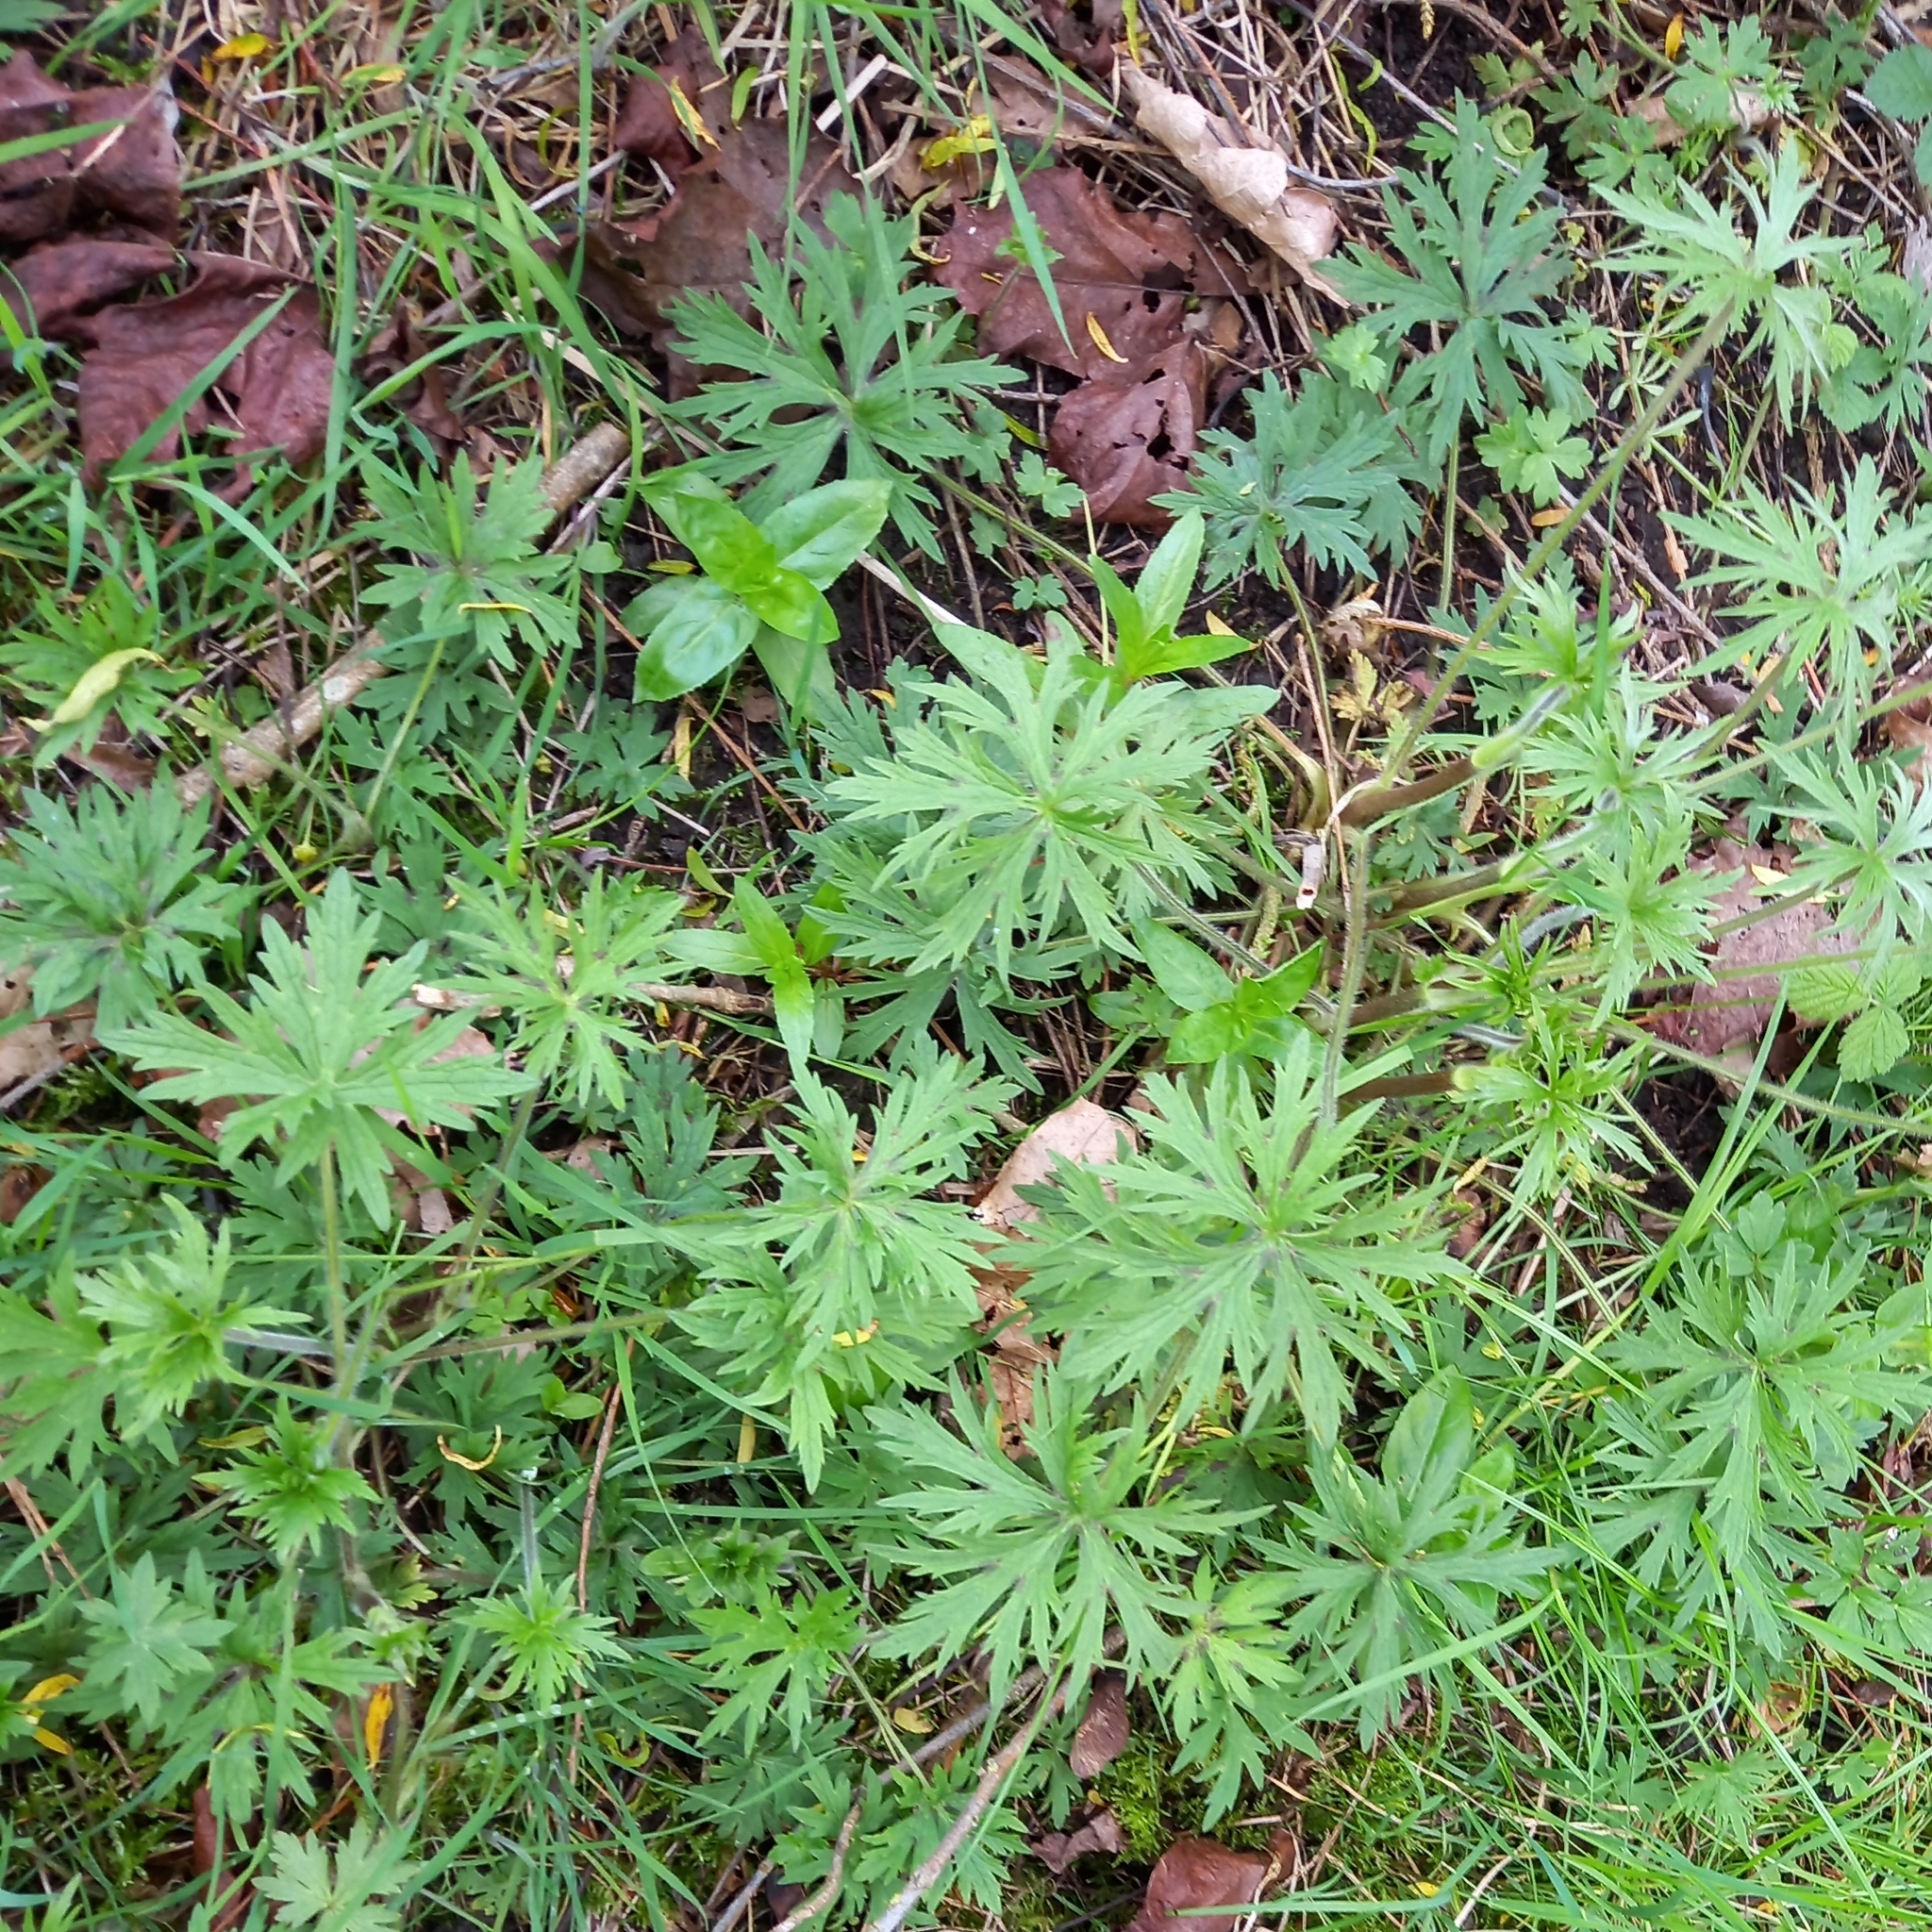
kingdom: Plantae
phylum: Tracheophyta
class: Magnoliopsida
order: Ranunculales
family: Ranunculaceae
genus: Ranunculus
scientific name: Ranunculus acris
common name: Meadow buttercup
